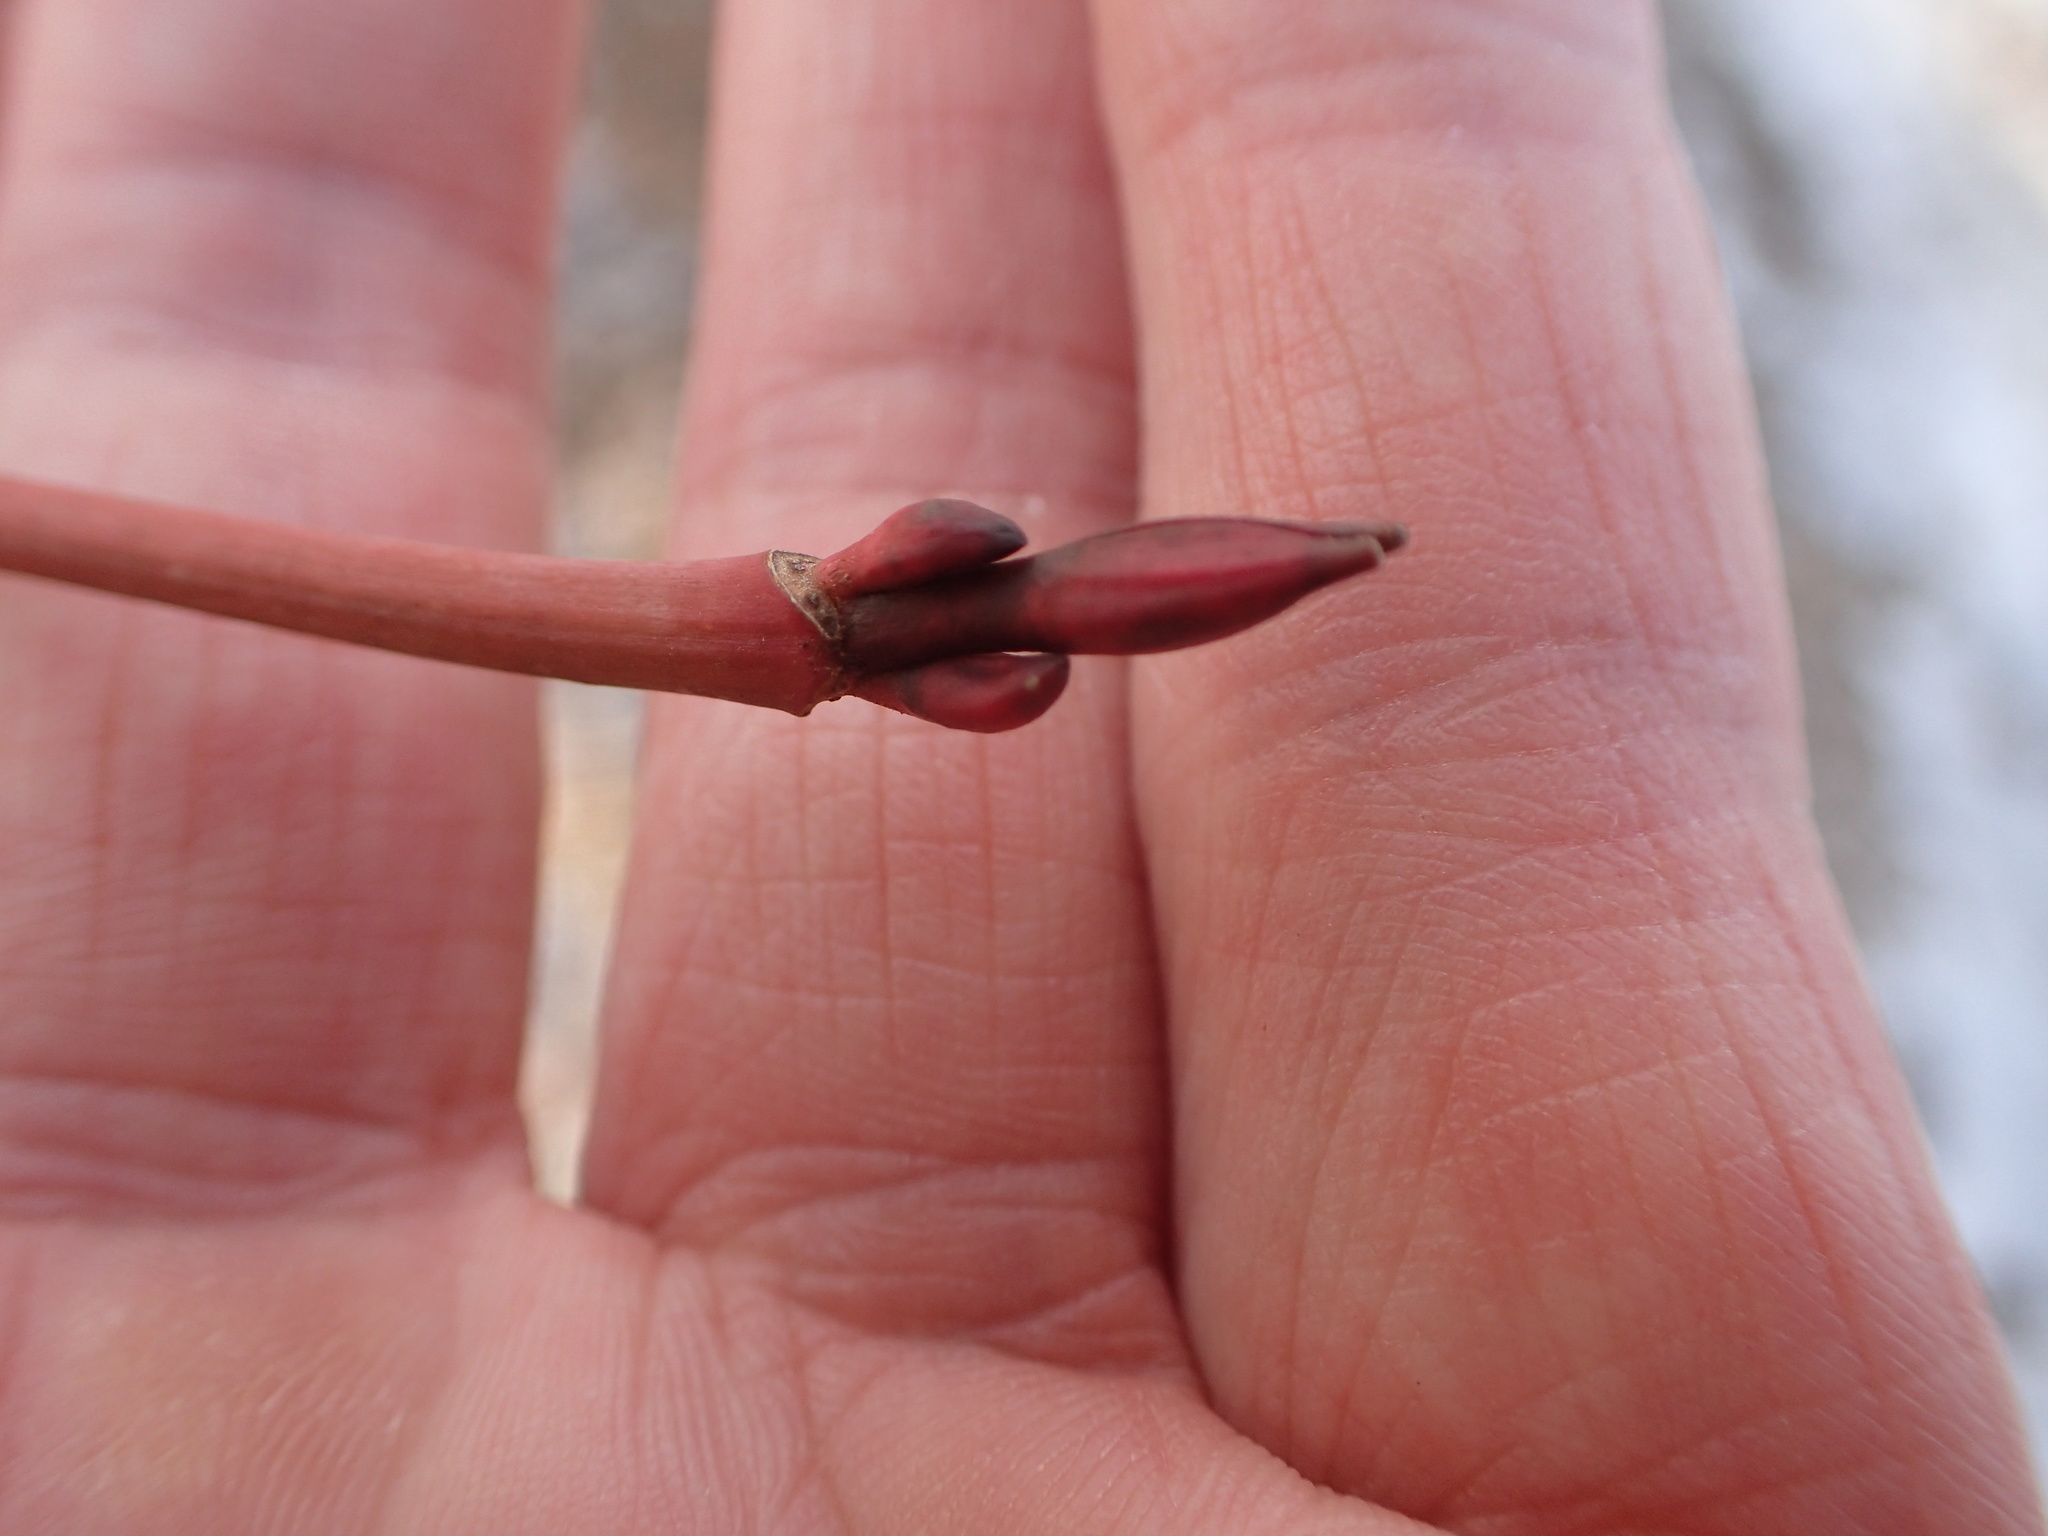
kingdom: Plantae
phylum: Tracheophyta
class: Magnoliopsida
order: Sapindales
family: Sapindaceae
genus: Acer
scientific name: Acer pensylvanicum
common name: Moosewood
